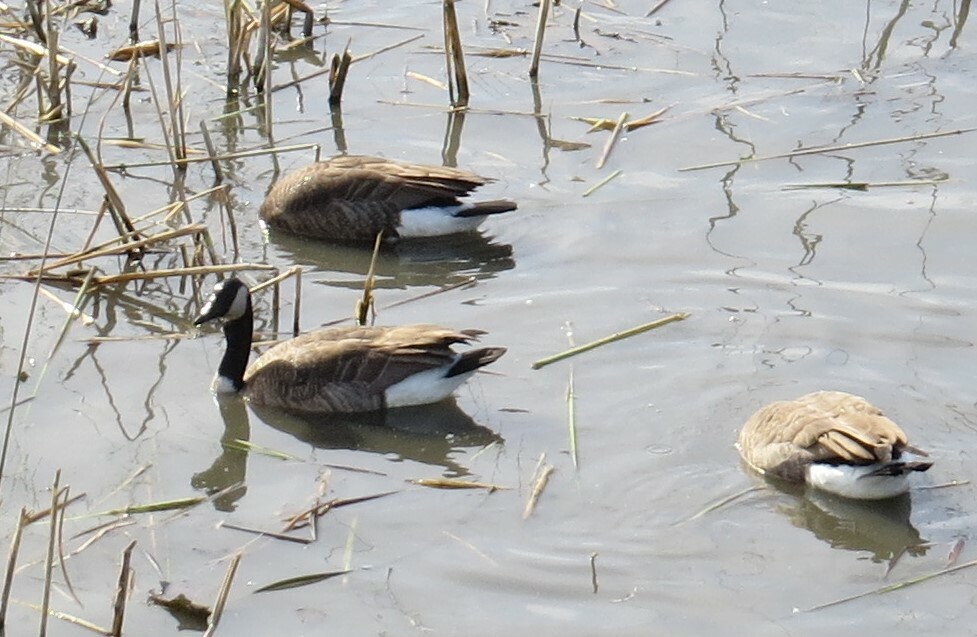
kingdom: Animalia
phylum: Chordata
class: Aves
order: Anseriformes
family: Anatidae
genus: Branta
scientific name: Branta canadensis
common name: Canada goose
